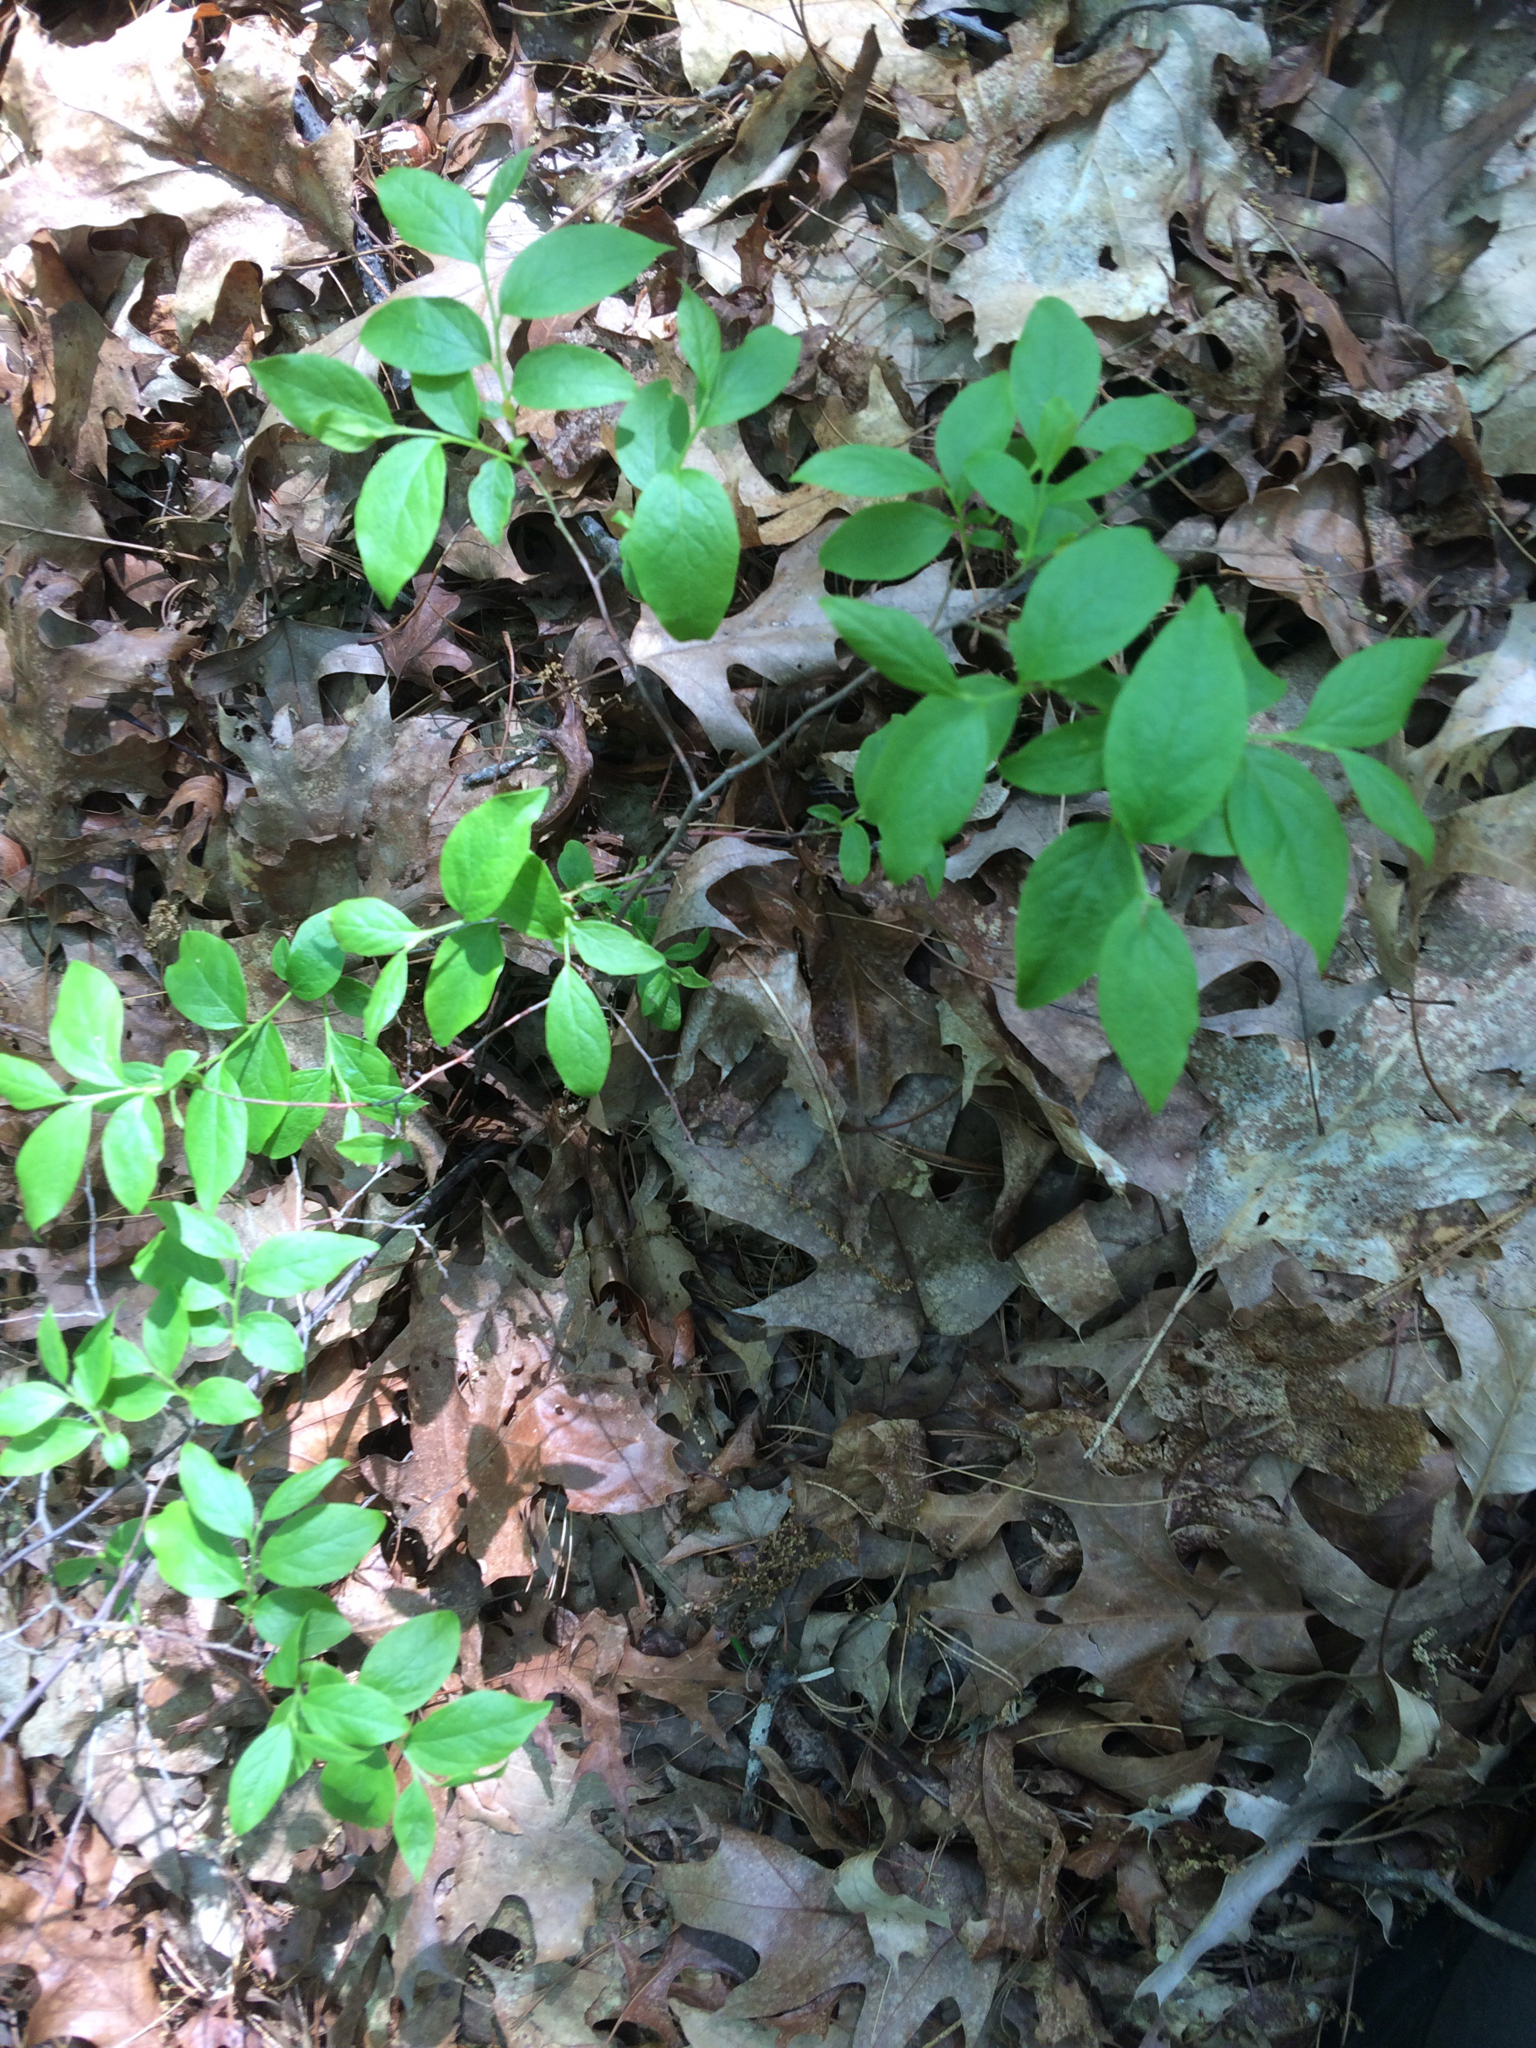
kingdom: Plantae
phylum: Tracheophyta
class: Magnoliopsida
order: Ericales
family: Ericaceae
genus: Vaccinium
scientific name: Vaccinium angustifolium
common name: Early lowbush blueberry
